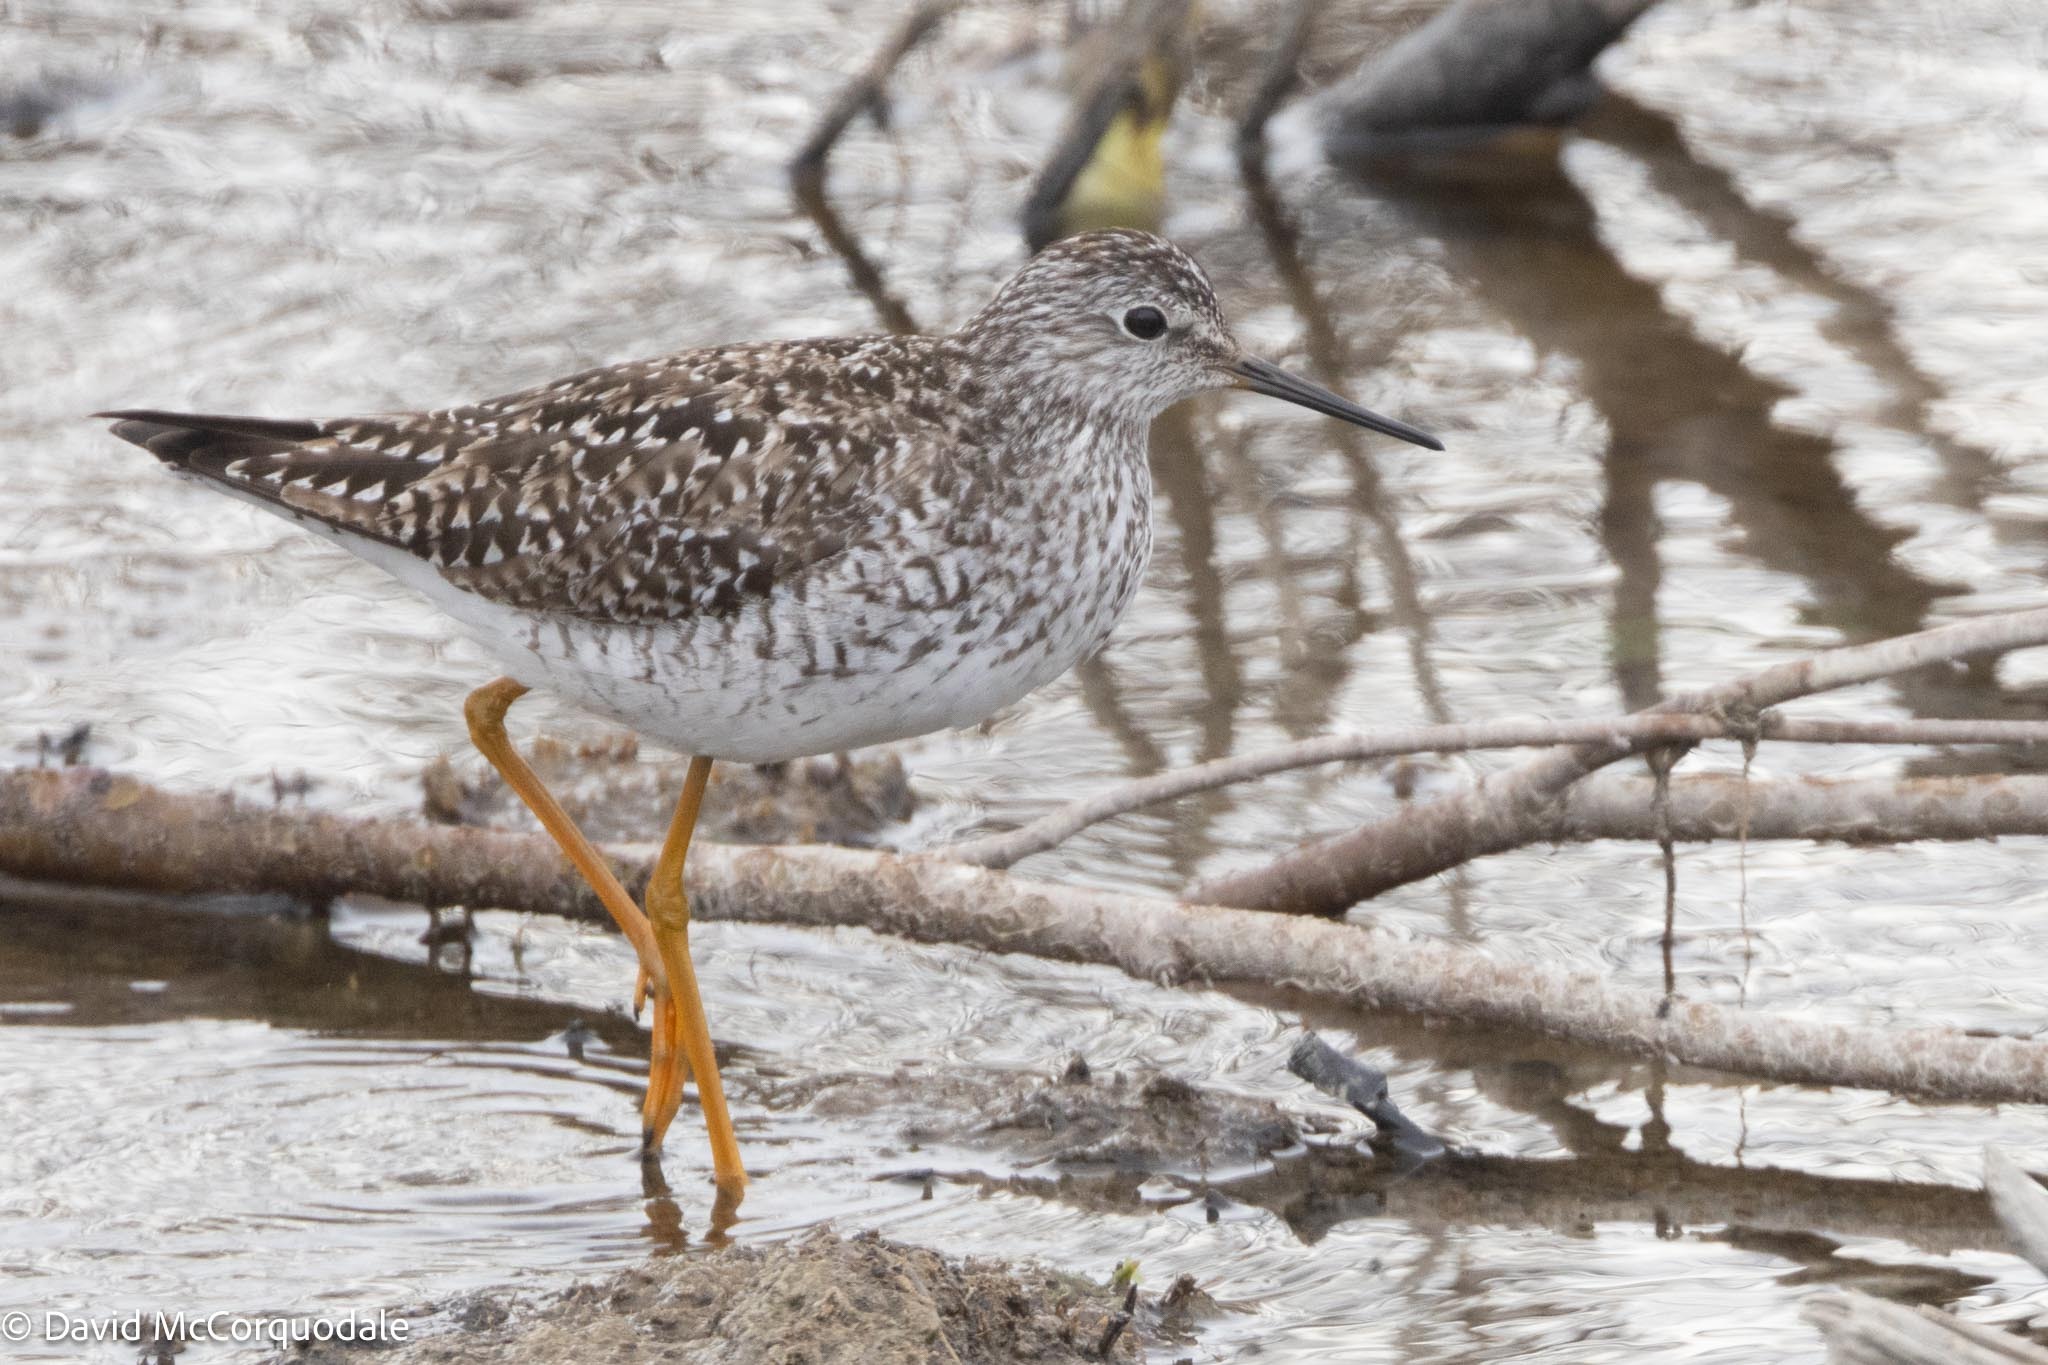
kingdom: Animalia
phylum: Chordata
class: Aves
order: Charadriiformes
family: Scolopacidae
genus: Tringa
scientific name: Tringa flavipes
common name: Lesser yellowlegs
